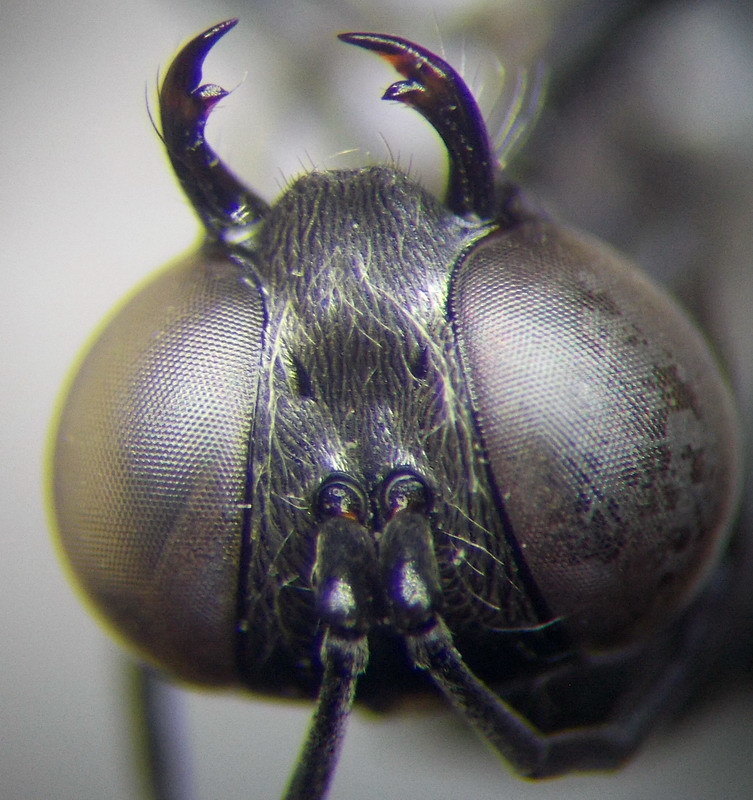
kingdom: Animalia
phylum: Arthropoda
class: Insecta
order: Hymenoptera
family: Sphecidae
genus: Ammophila
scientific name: Ammophila terminata
